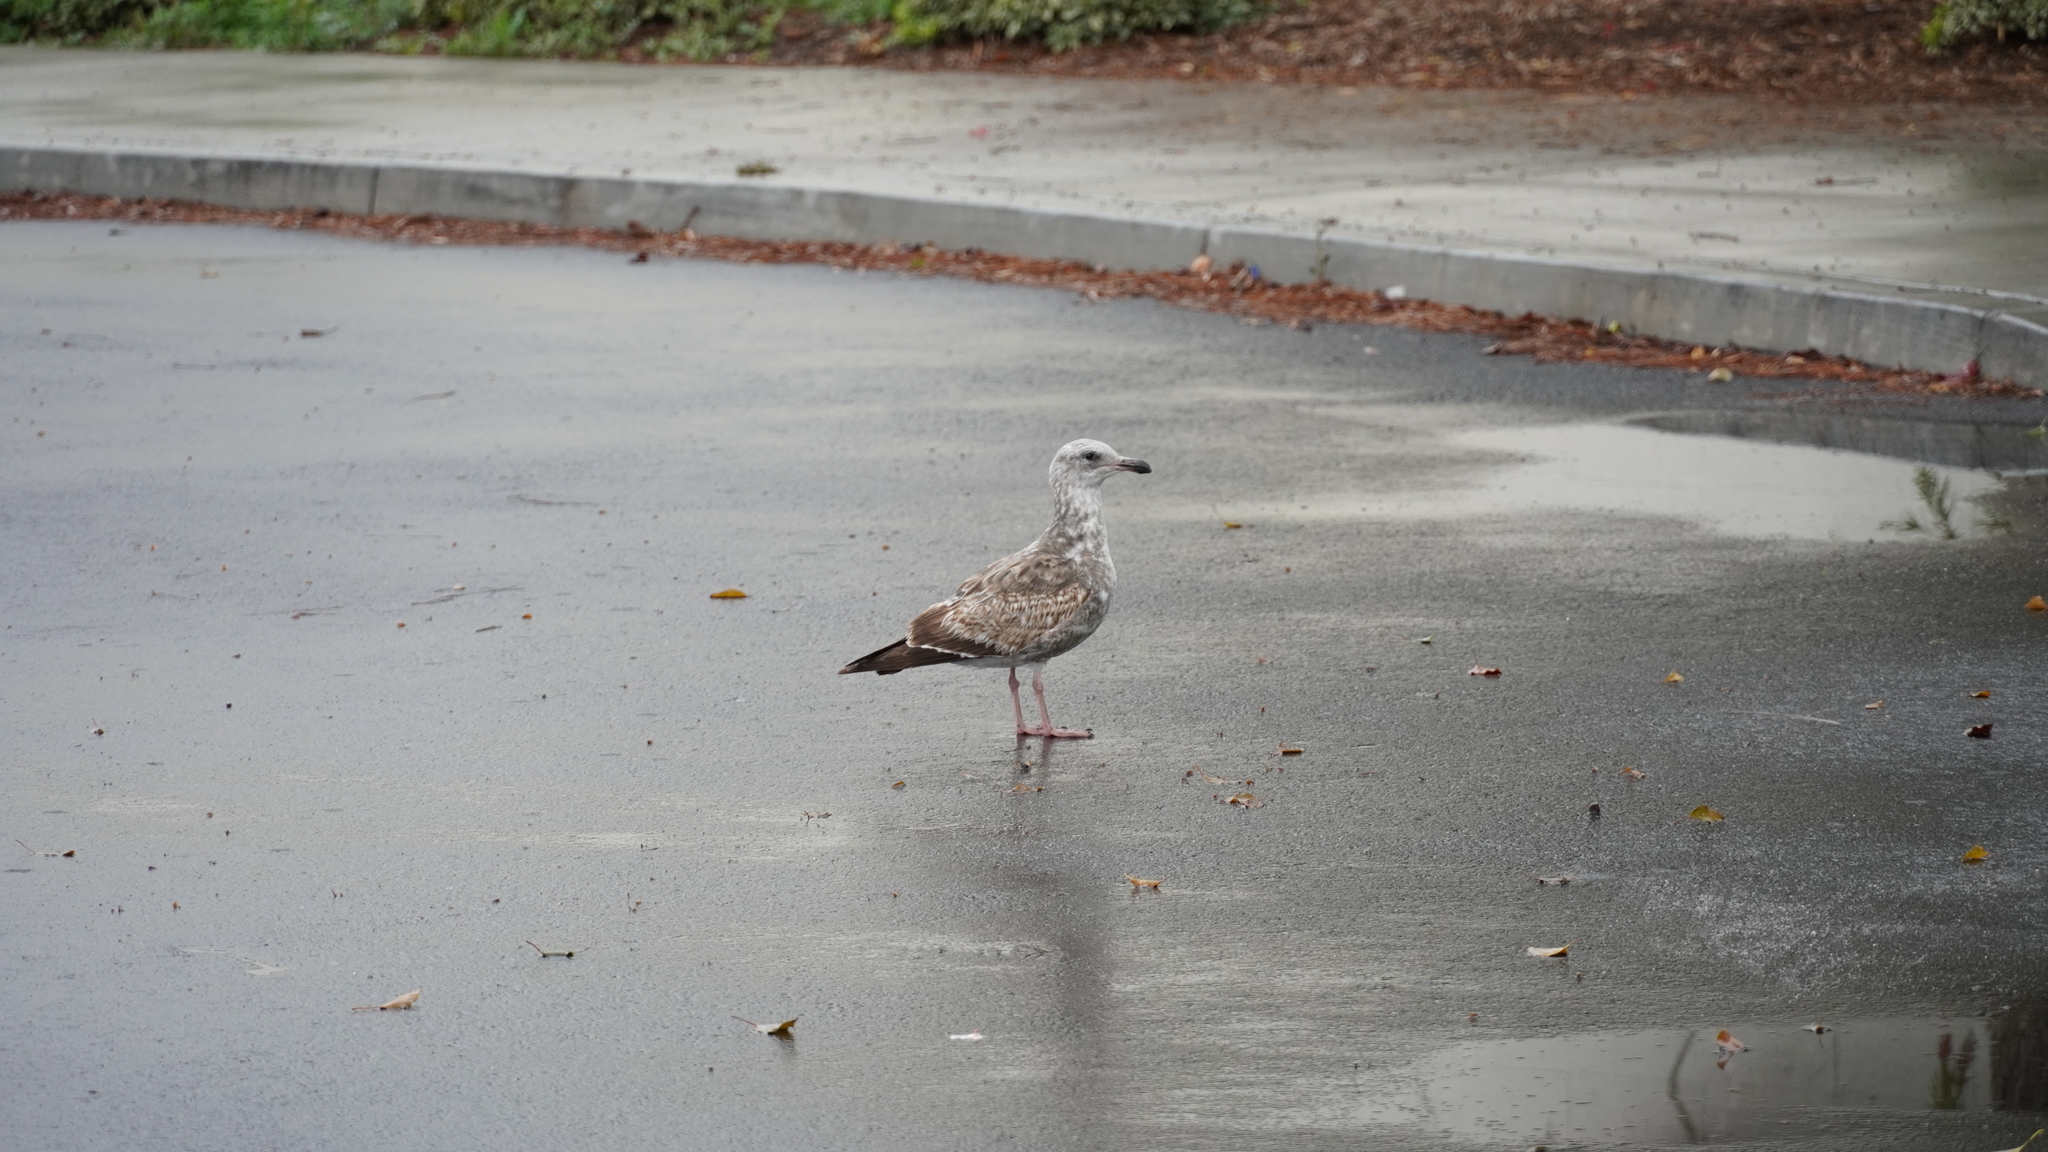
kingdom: Animalia
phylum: Chordata
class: Aves
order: Charadriiformes
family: Laridae
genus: Larus
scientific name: Larus occidentalis
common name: Western gull
